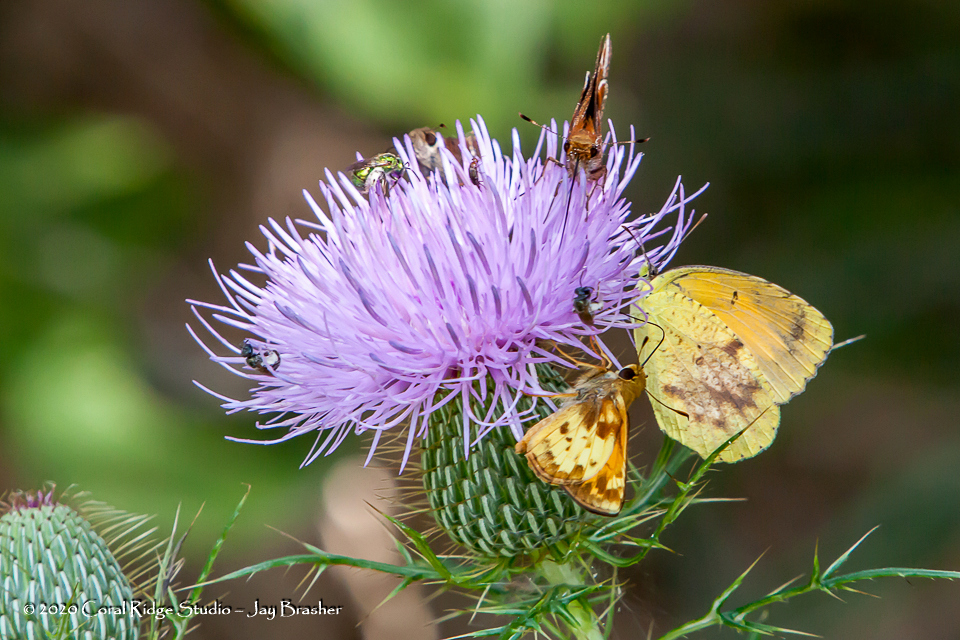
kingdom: Animalia
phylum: Arthropoda
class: Insecta
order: Lepidoptera
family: Pieridae
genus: Abaeis
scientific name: Abaeis nicippe
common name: Sleepy orange
